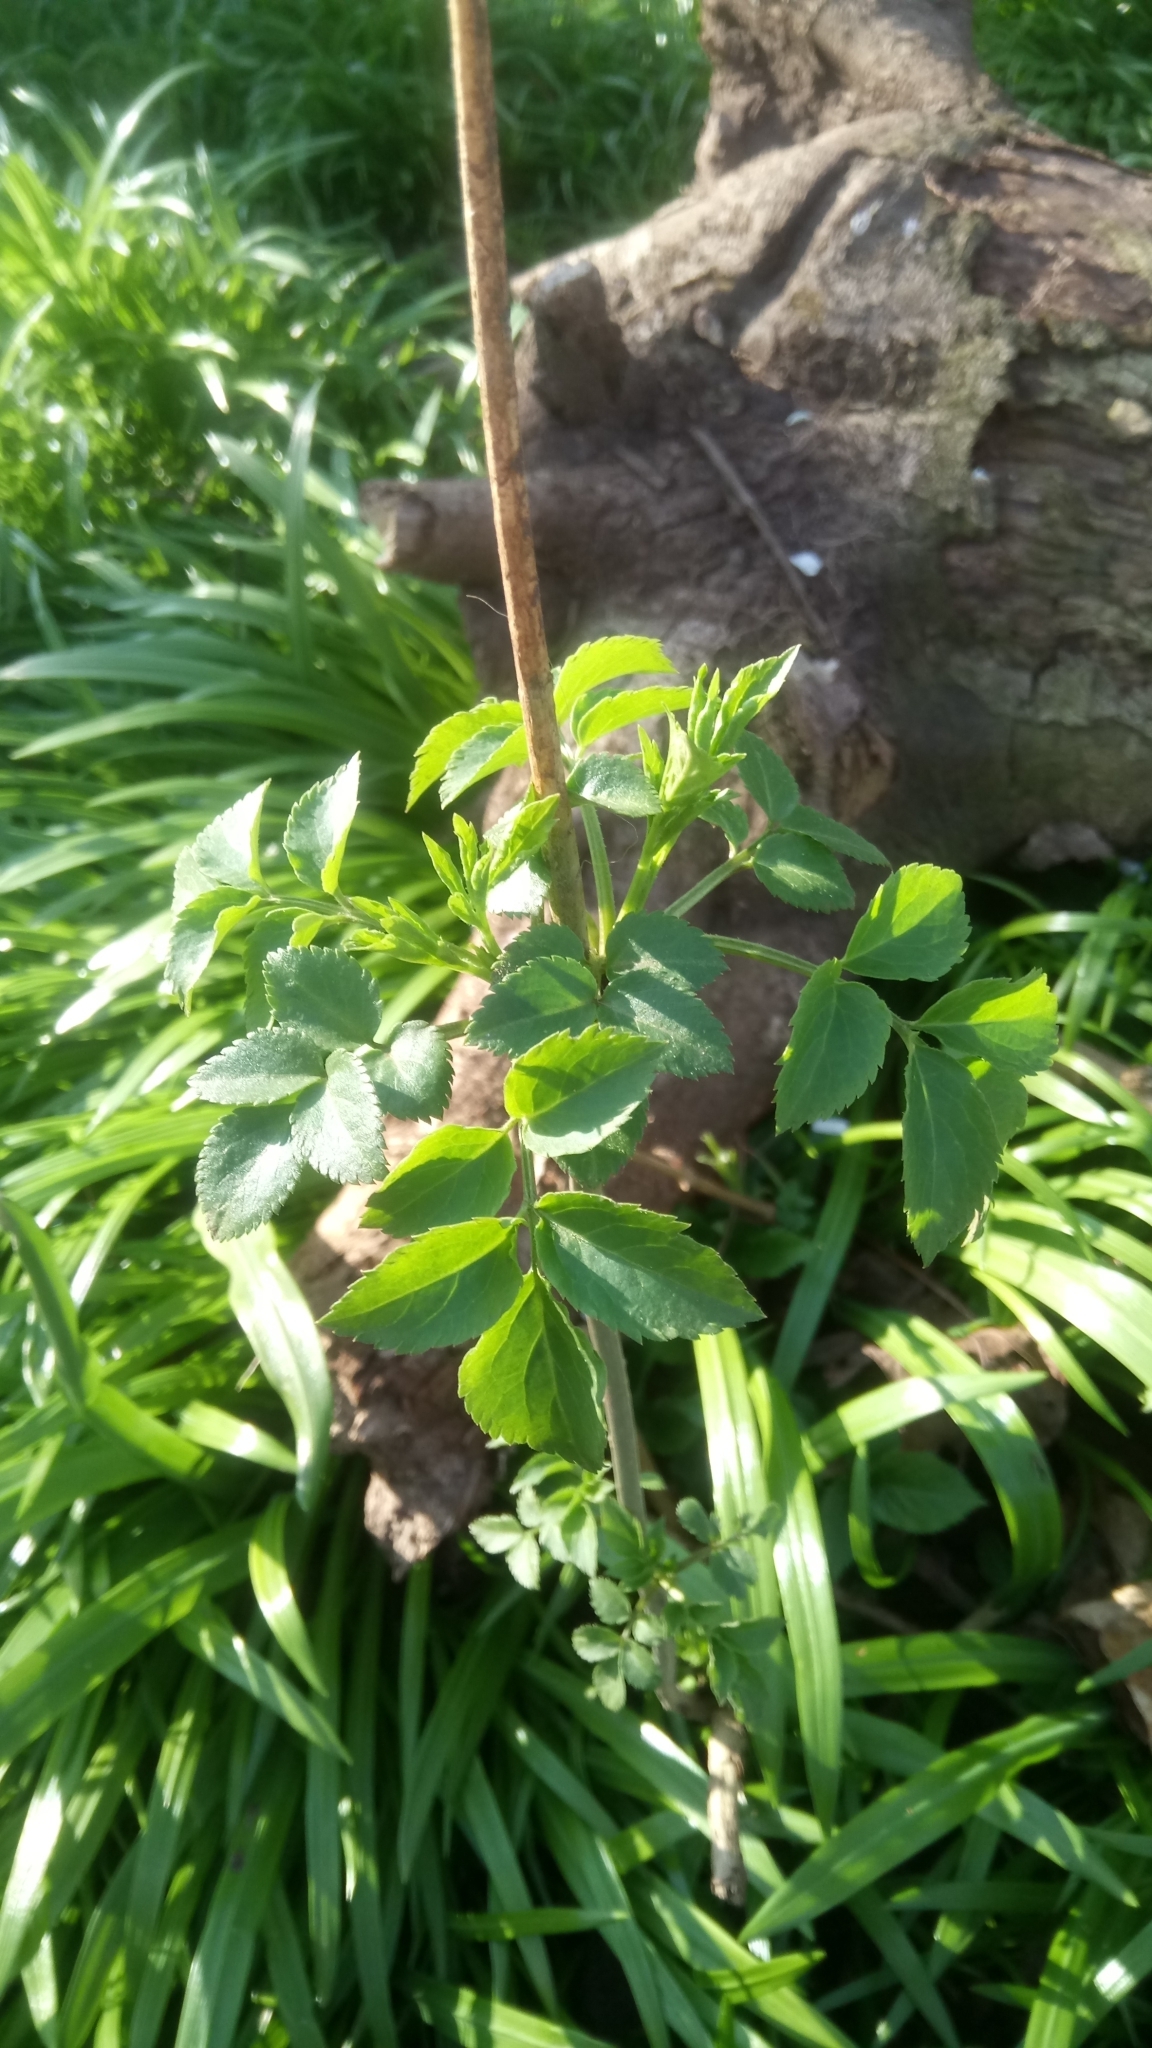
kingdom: Plantae
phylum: Tracheophyta
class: Magnoliopsida
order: Dipsacales
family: Viburnaceae
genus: Sambucus
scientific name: Sambucus nigra
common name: Elder
